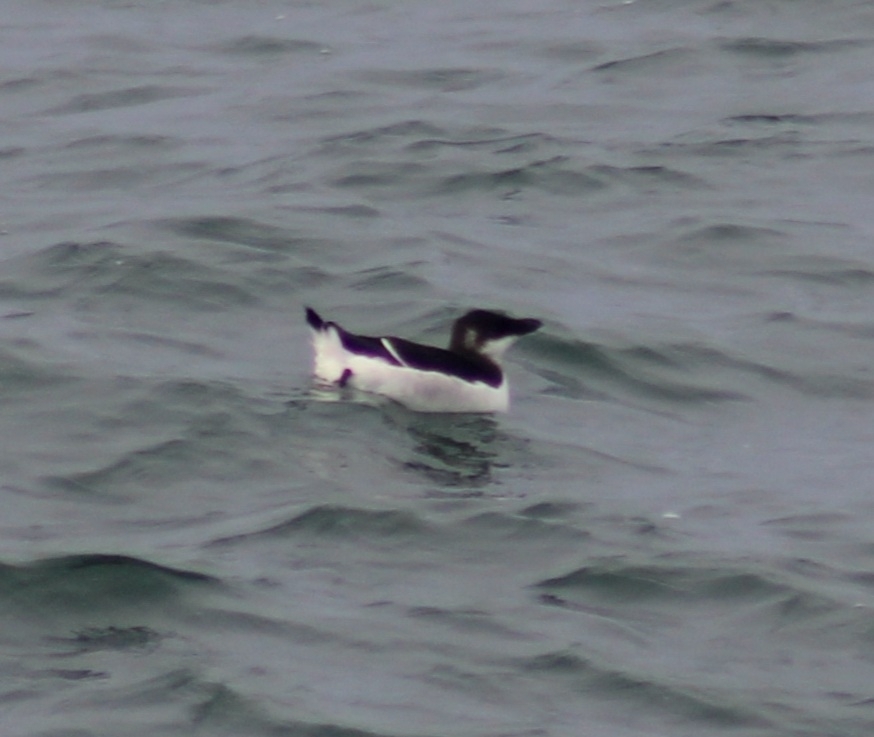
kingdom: Animalia
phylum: Chordata
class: Aves
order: Charadriiformes
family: Alcidae
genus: Alca
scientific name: Alca torda
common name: Razorbill
